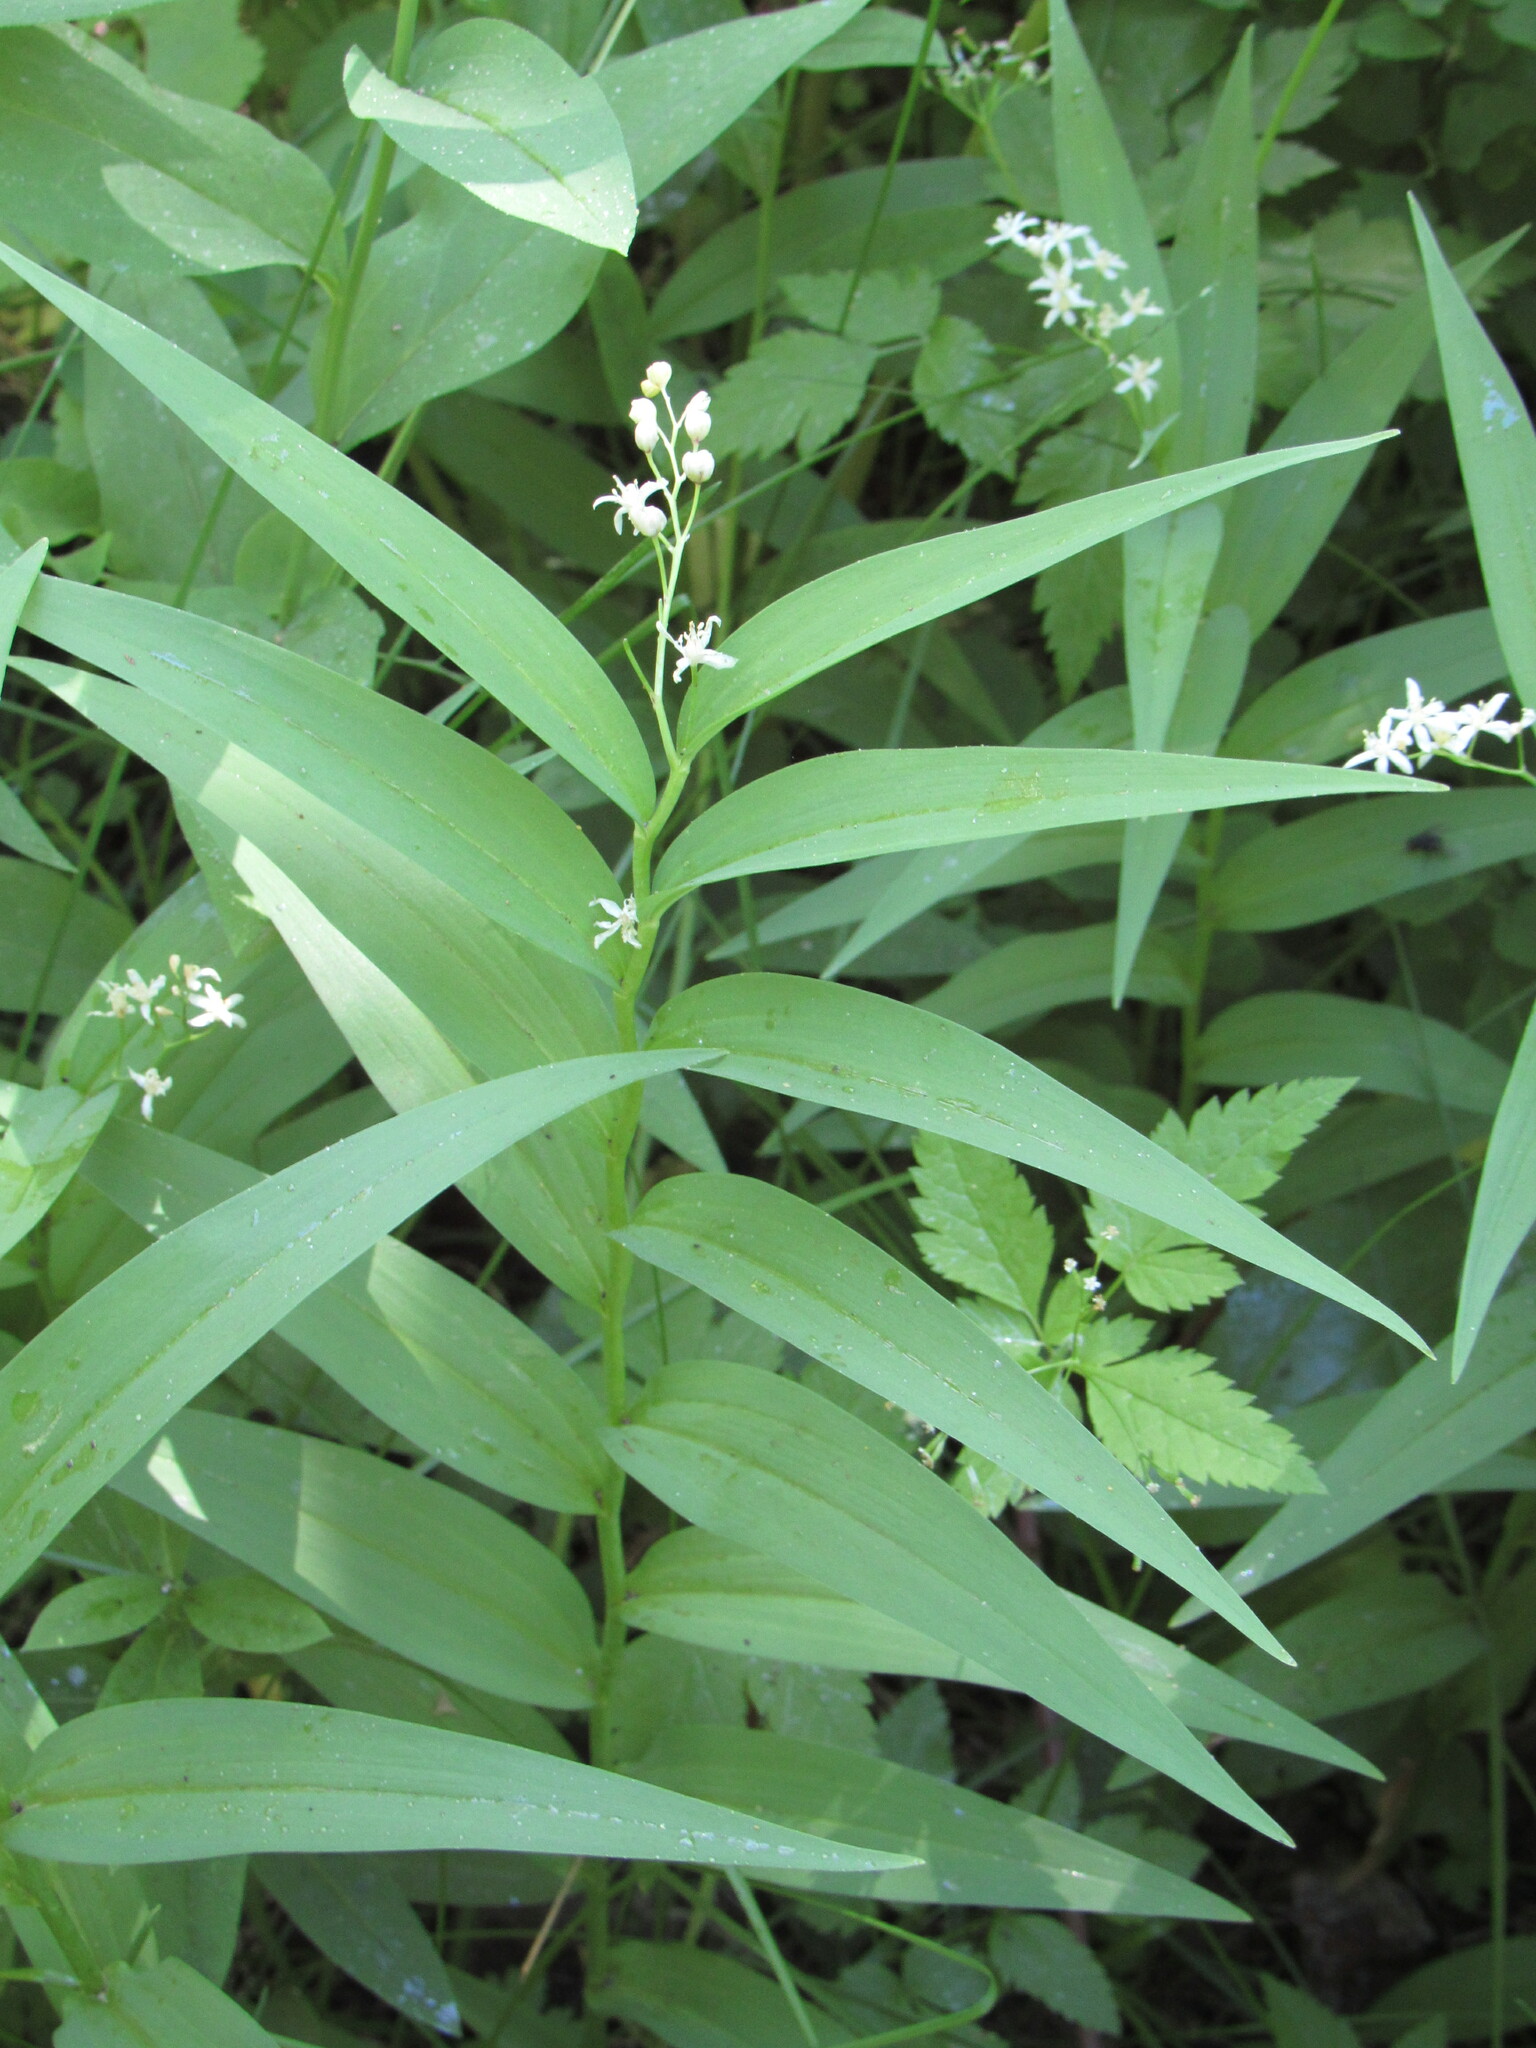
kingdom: Plantae
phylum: Tracheophyta
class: Liliopsida
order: Asparagales
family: Asparagaceae
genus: Maianthemum
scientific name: Maianthemum stellatum
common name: Little false solomon's seal
